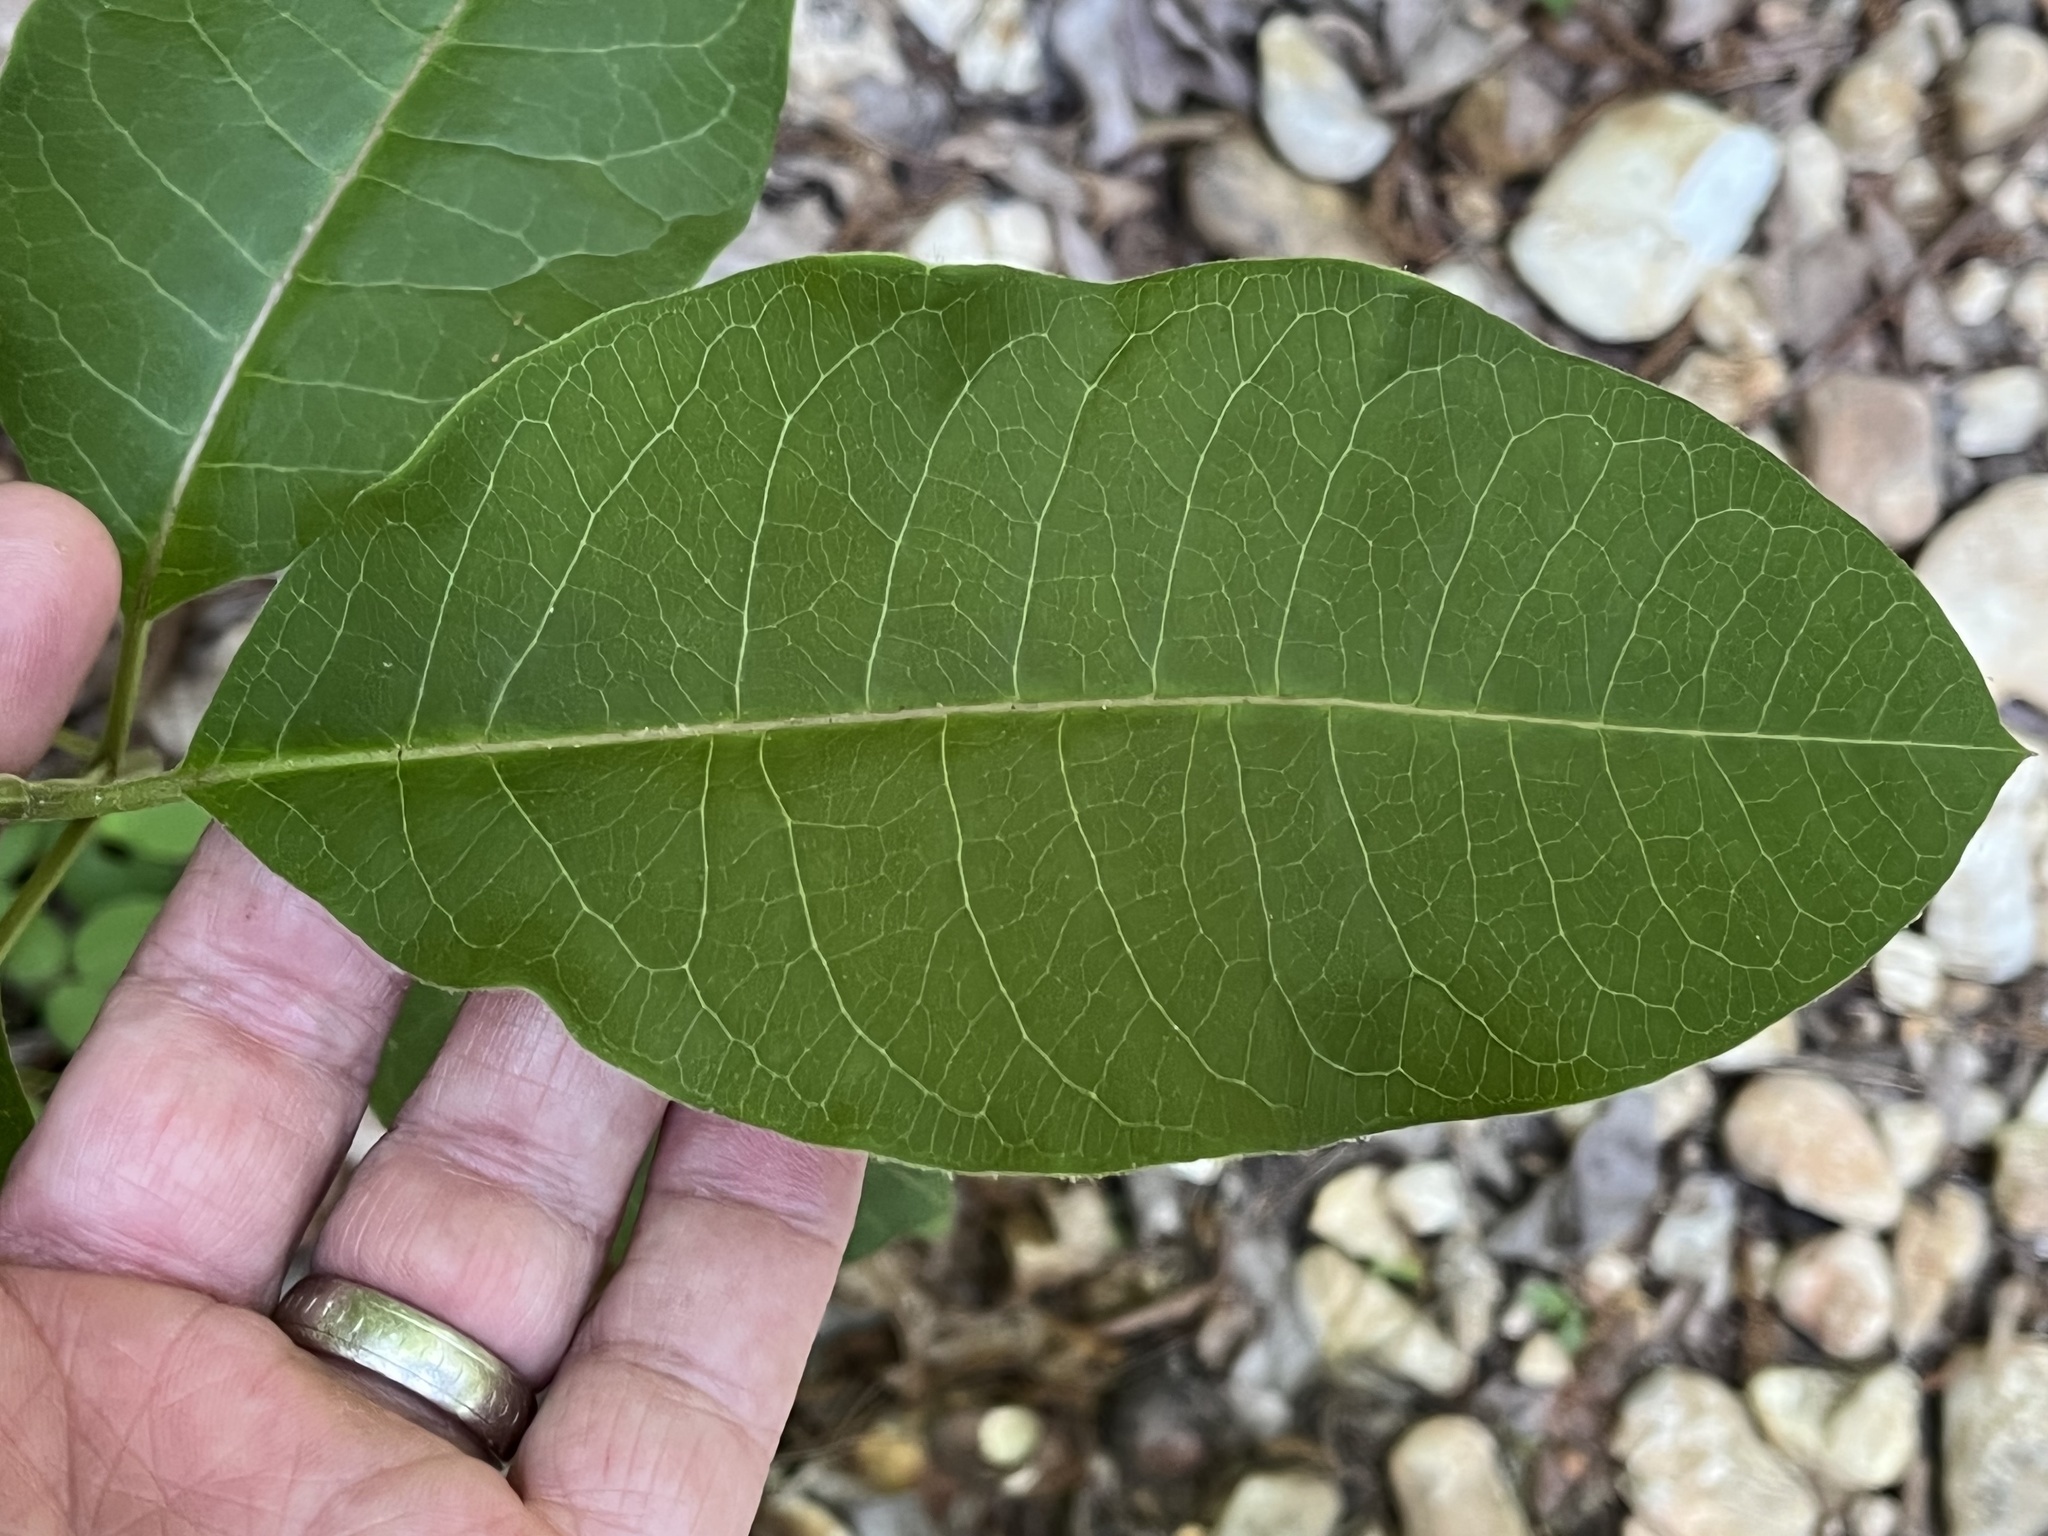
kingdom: Plantae
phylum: Tracheophyta
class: Magnoliopsida
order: Gentianales
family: Apocynaceae
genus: Asclepias
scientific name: Asclepias variegata
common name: Variegated milkweed
